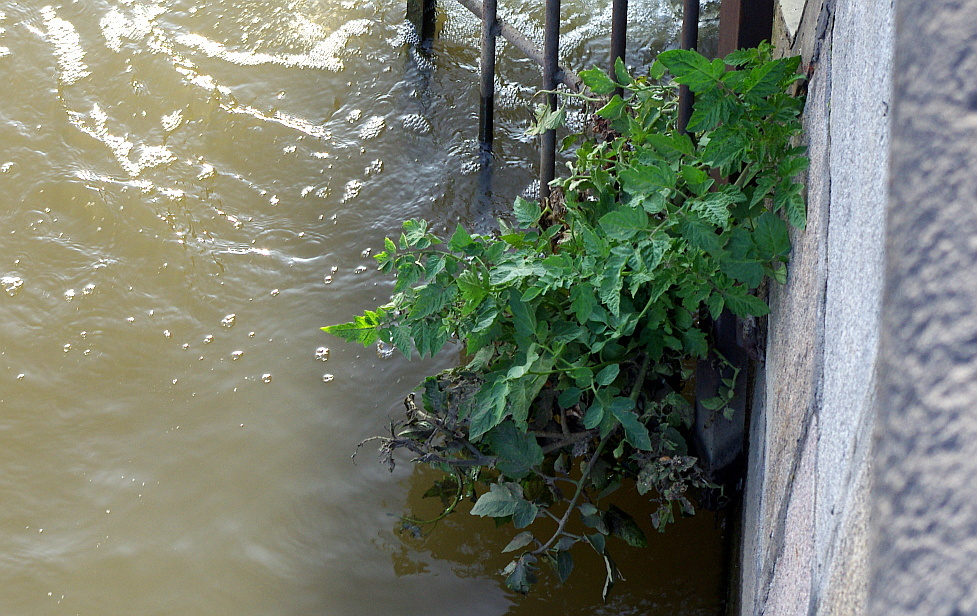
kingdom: Plantae
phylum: Tracheophyta
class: Magnoliopsida
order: Solanales
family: Solanaceae
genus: Solanum
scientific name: Solanum lycopersicum
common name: Garden tomato
